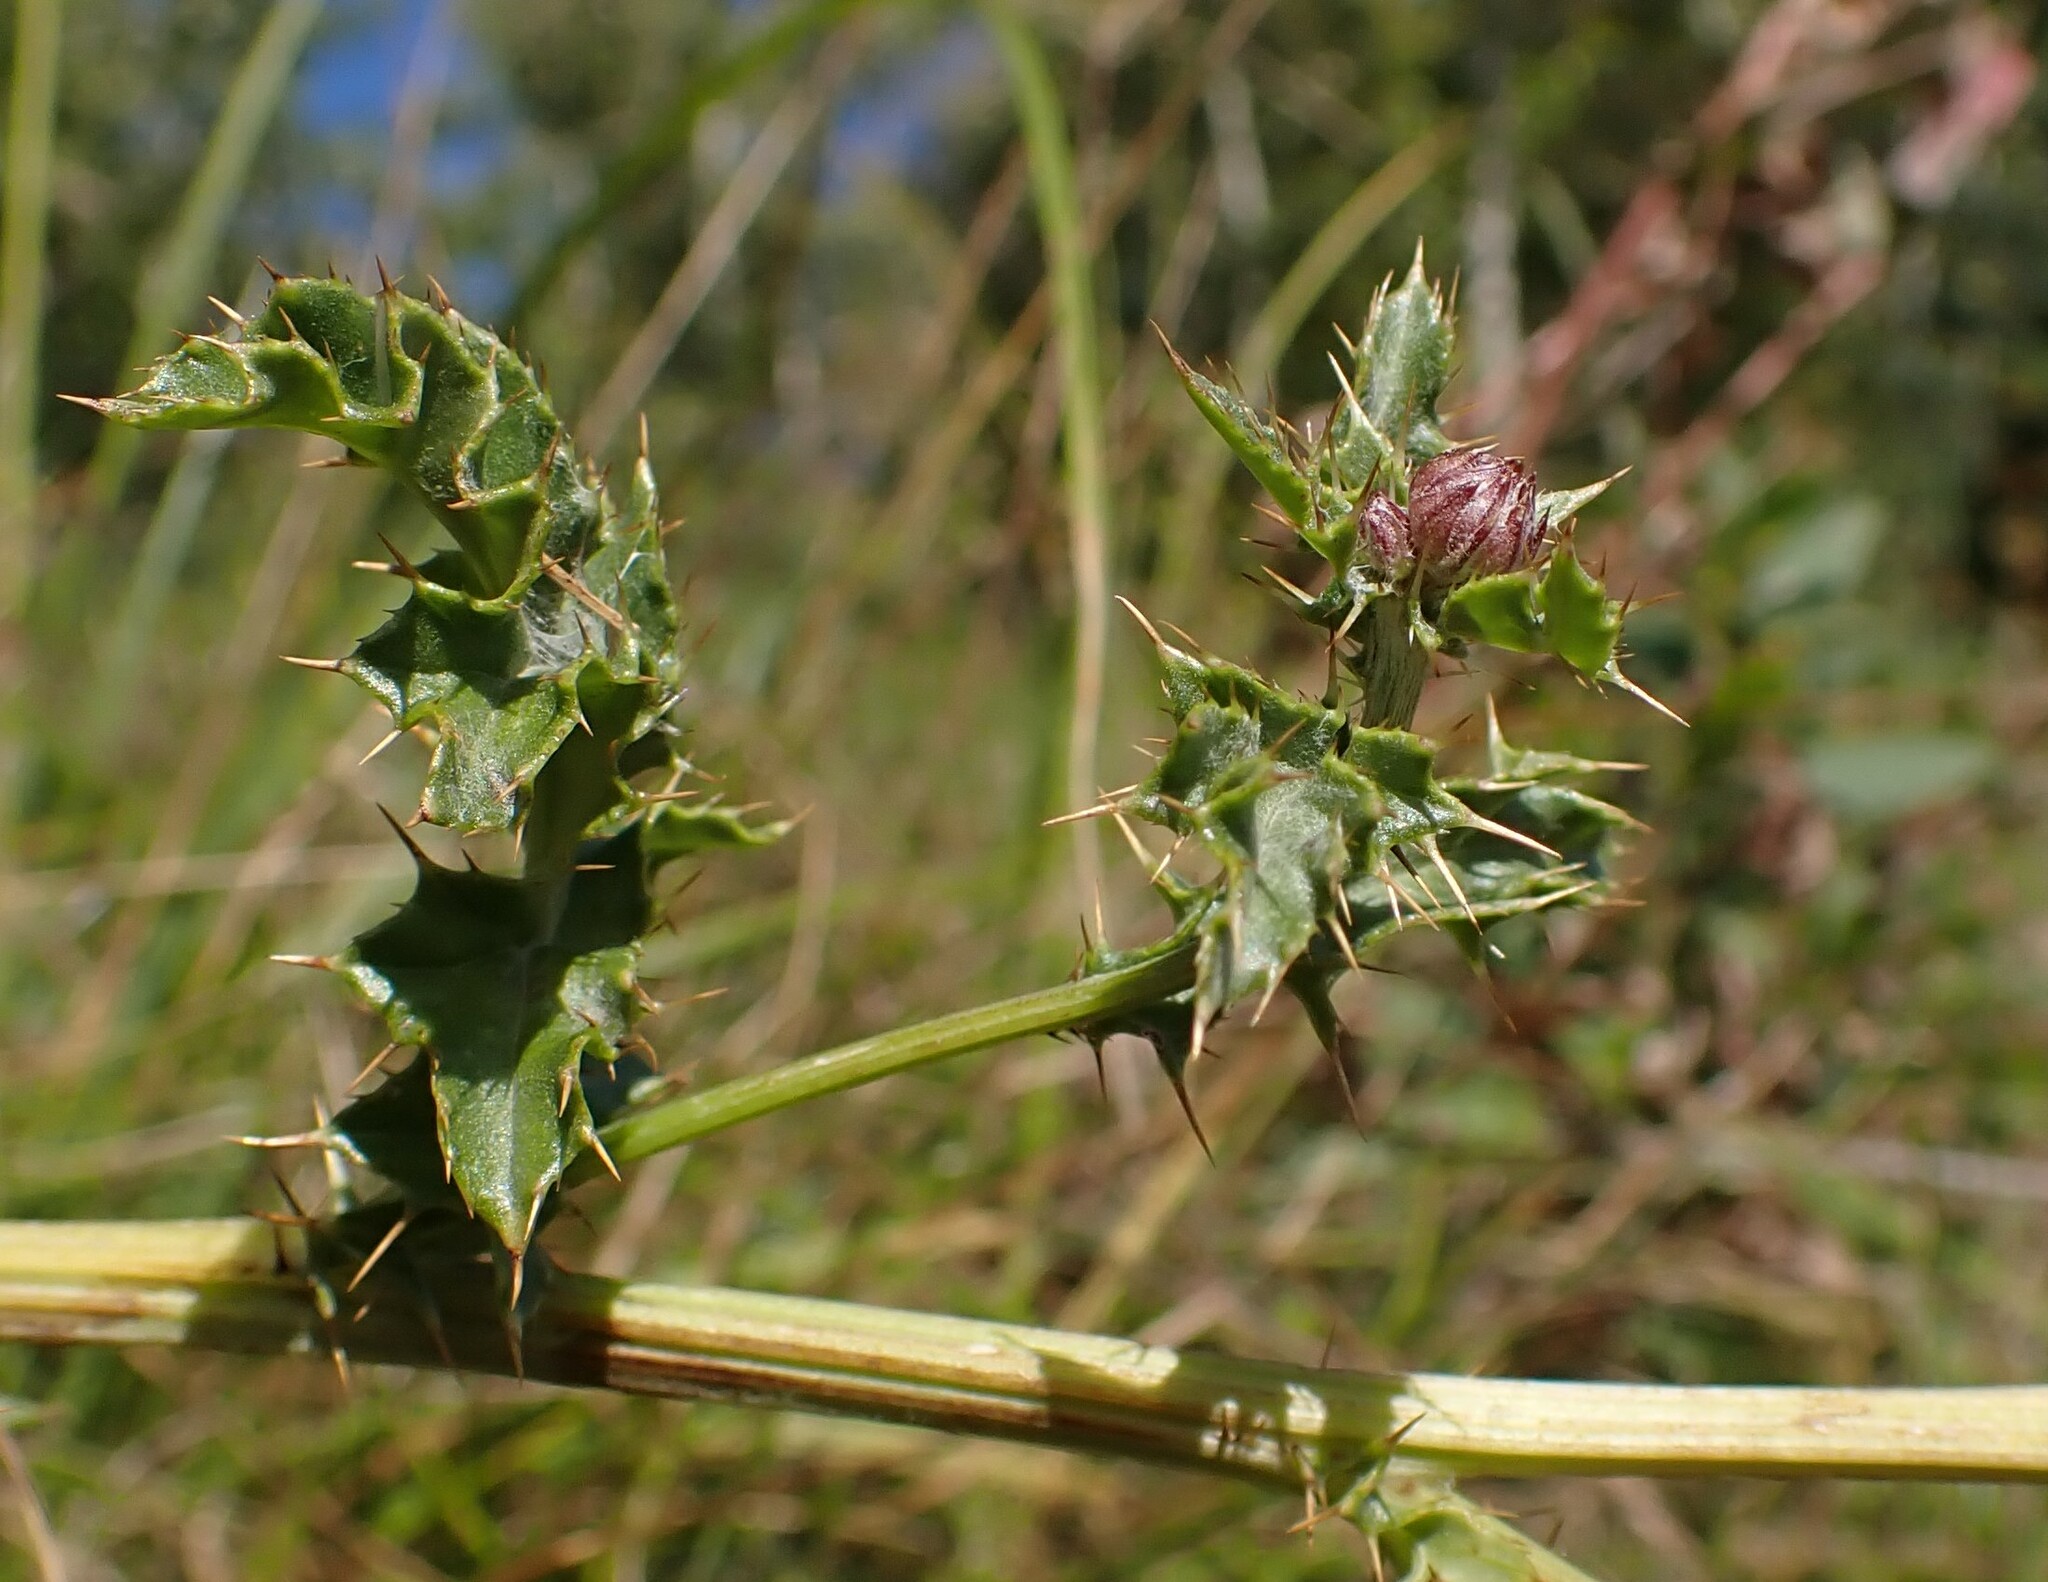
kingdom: Plantae
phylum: Tracheophyta
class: Magnoliopsida
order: Asterales
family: Asteraceae
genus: Cirsium
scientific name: Cirsium arvense
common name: Creeping thistle
